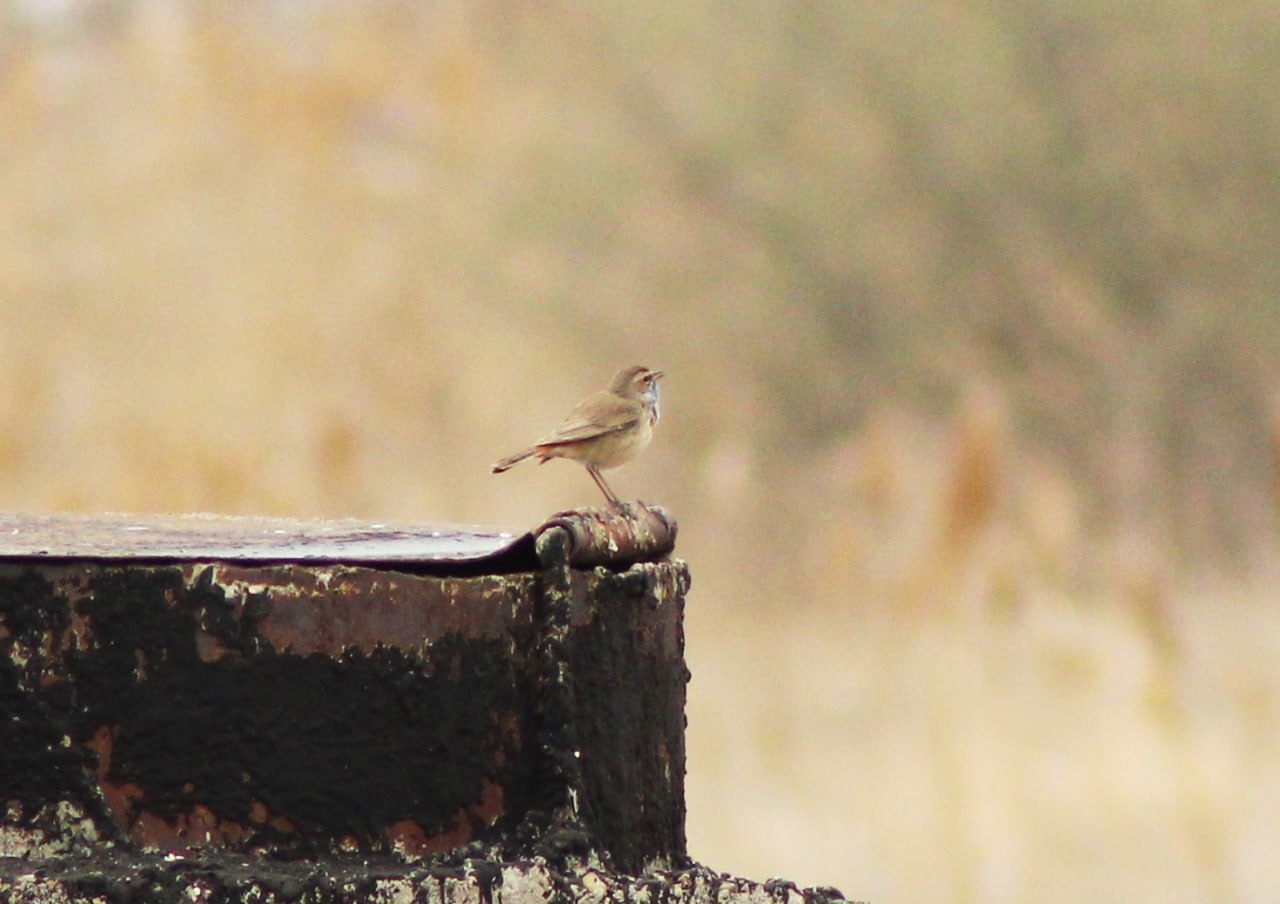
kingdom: Animalia
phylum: Chordata
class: Aves
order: Passeriformes
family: Muscicapidae
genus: Luscinia
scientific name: Luscinia svecica
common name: Bluethroat
